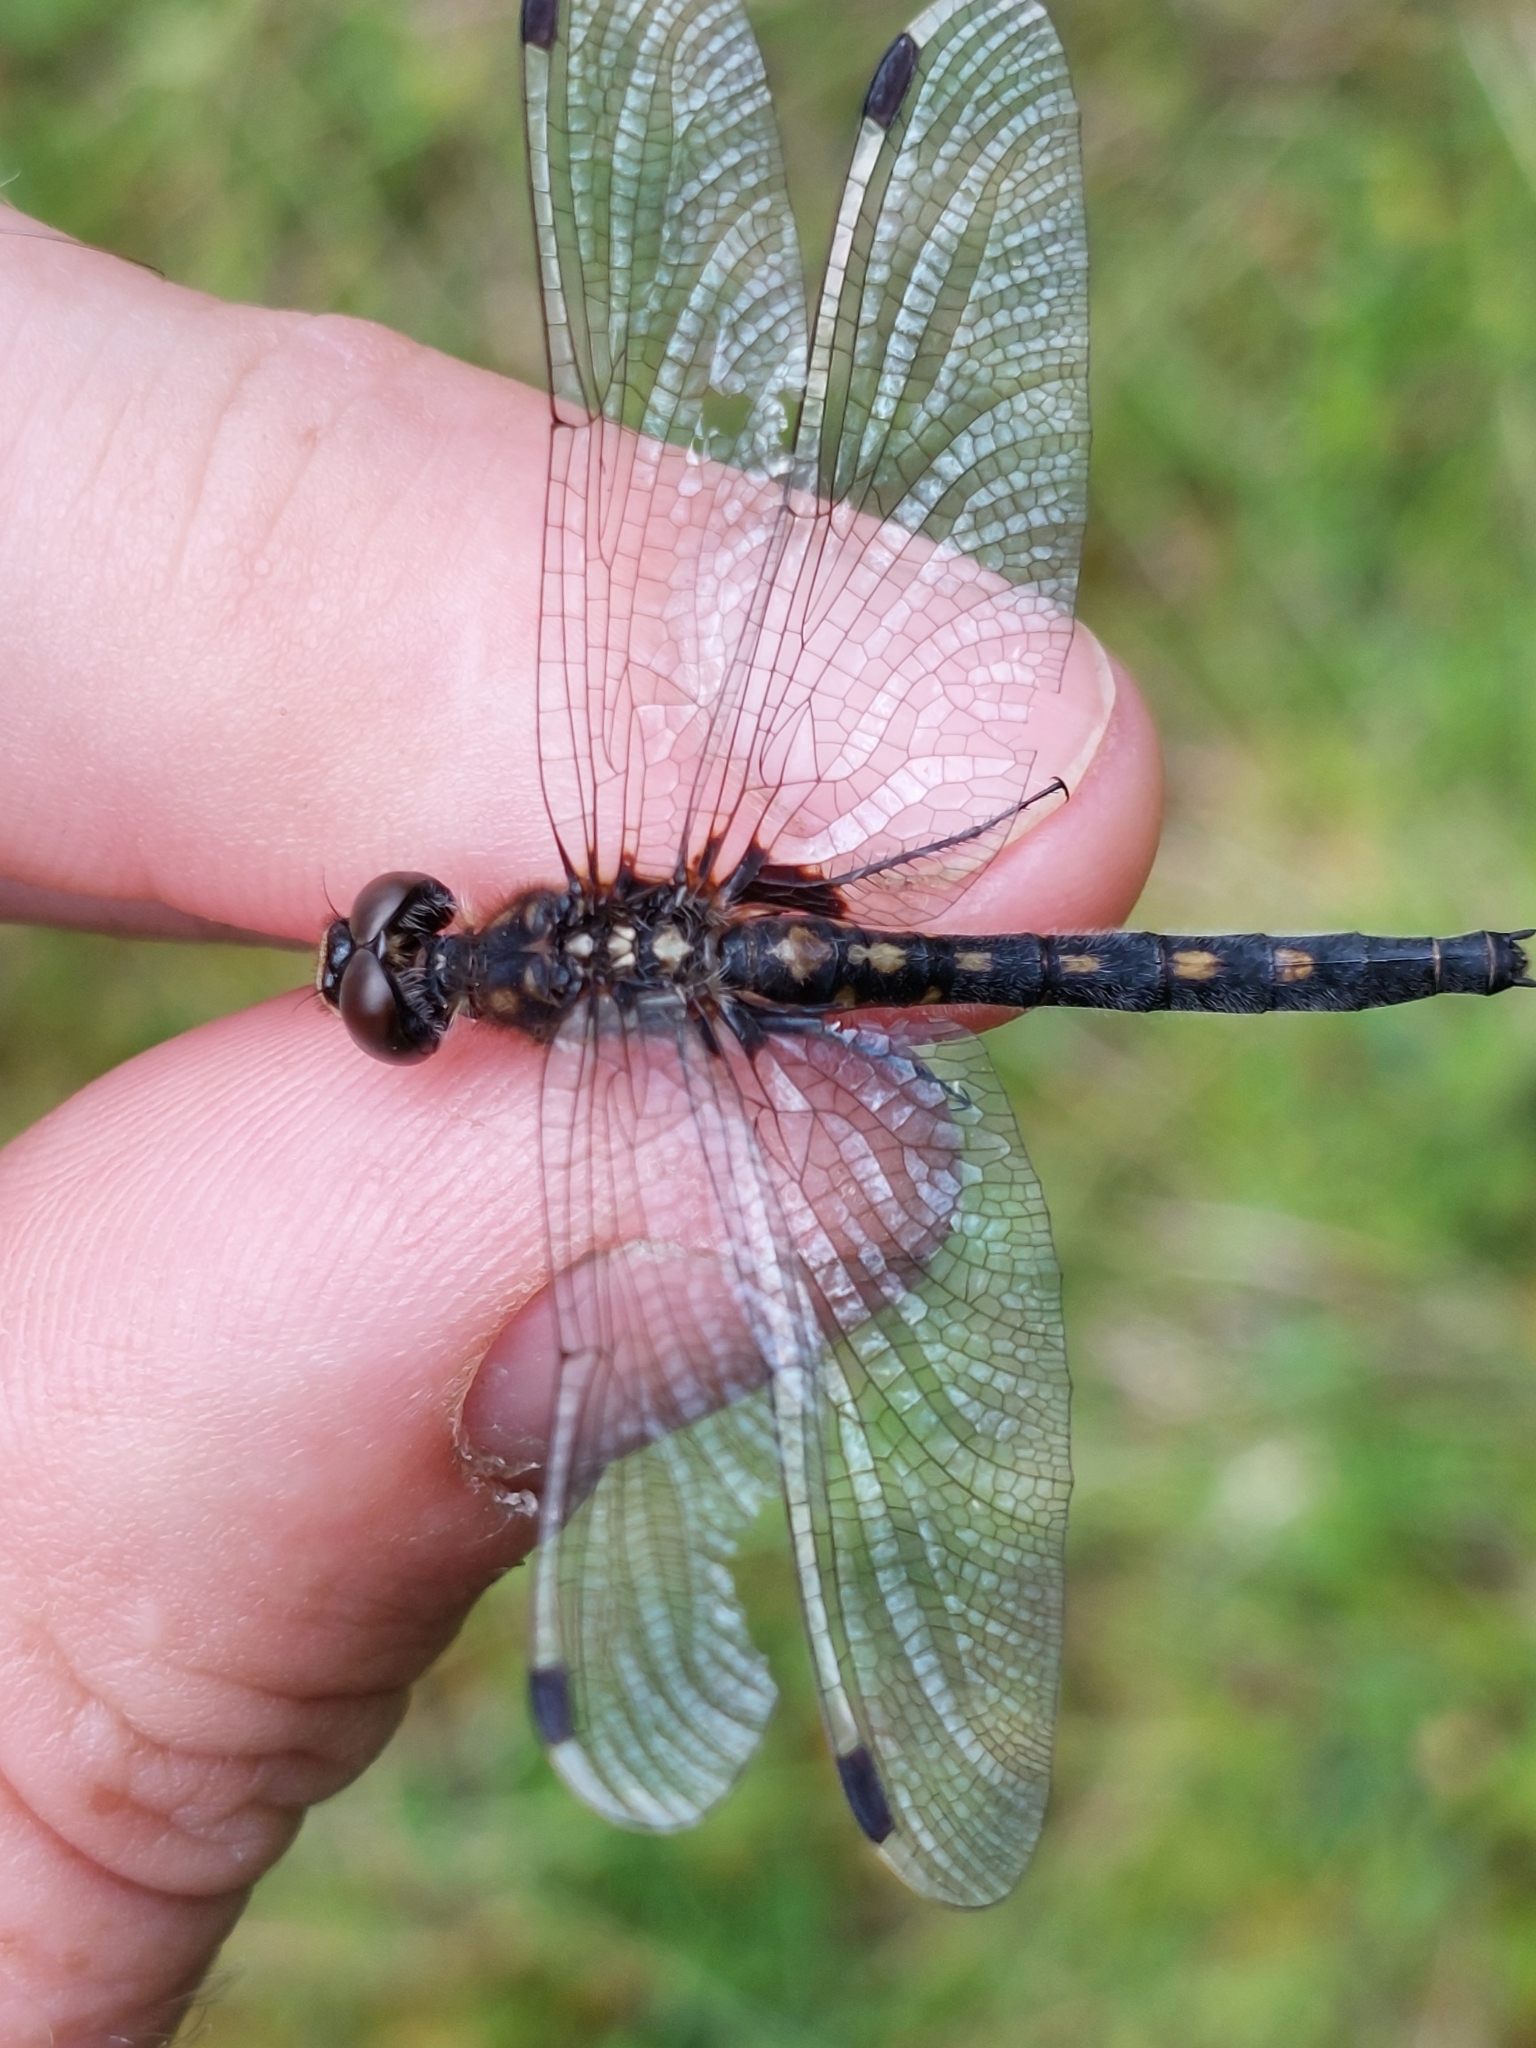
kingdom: Animalia
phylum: Arthropoda
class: Insecta
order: Odonata
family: Libellulidae
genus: Leucorrhinia
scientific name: Leucorrhinia dubia
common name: White-faced darter
